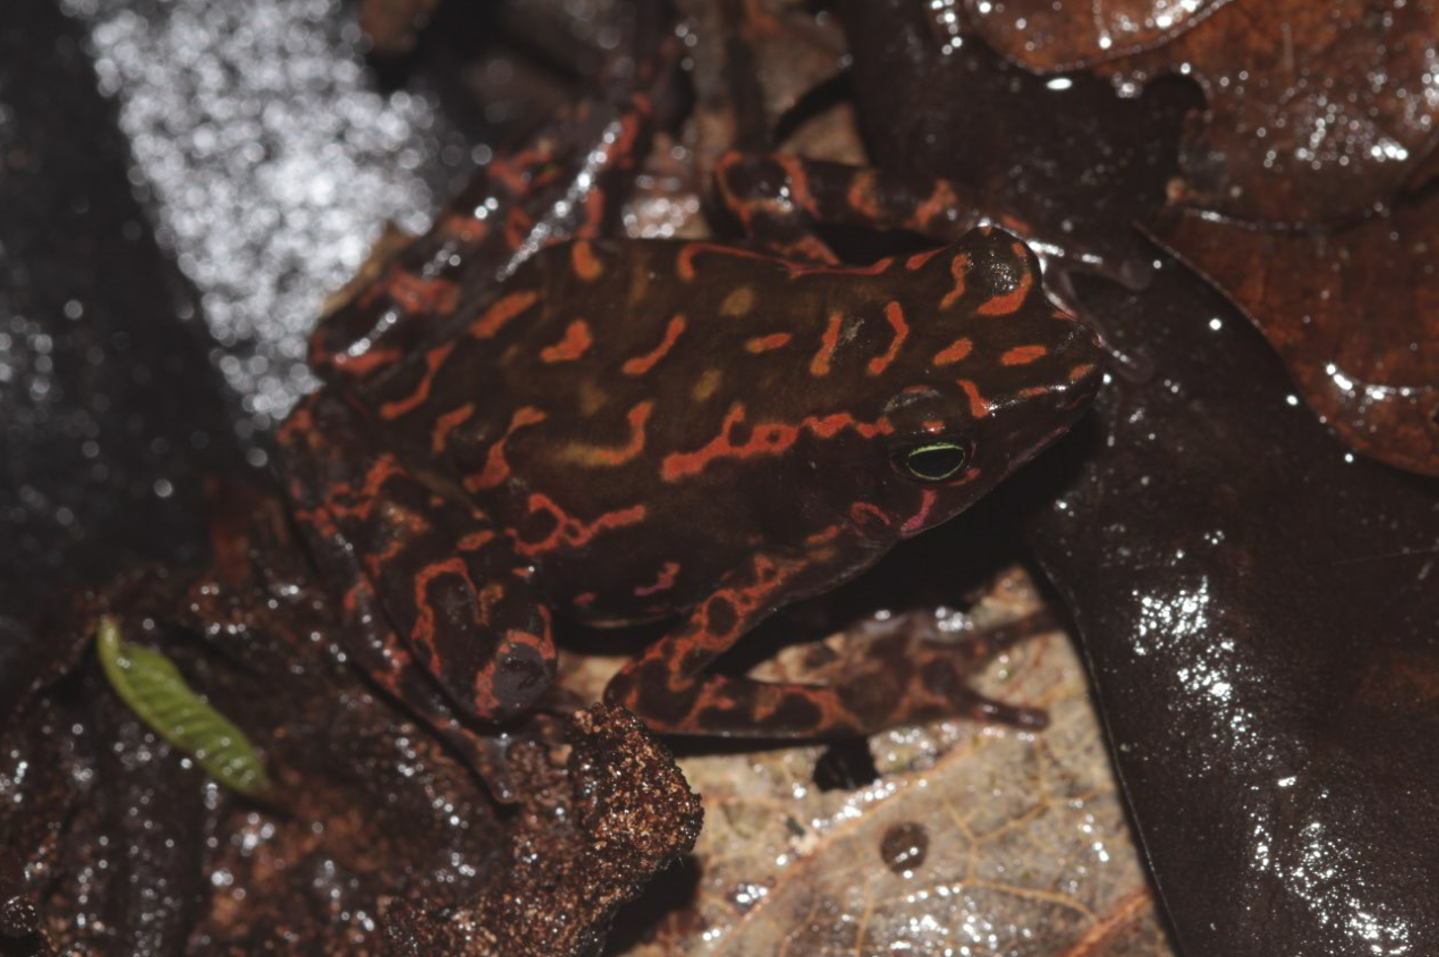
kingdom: Animalia
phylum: Chordata
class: Amphibia
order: Anura
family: Bufonidae
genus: Atelopus
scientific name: Atelopus flavescens
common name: Cayenne stubfoot toad
